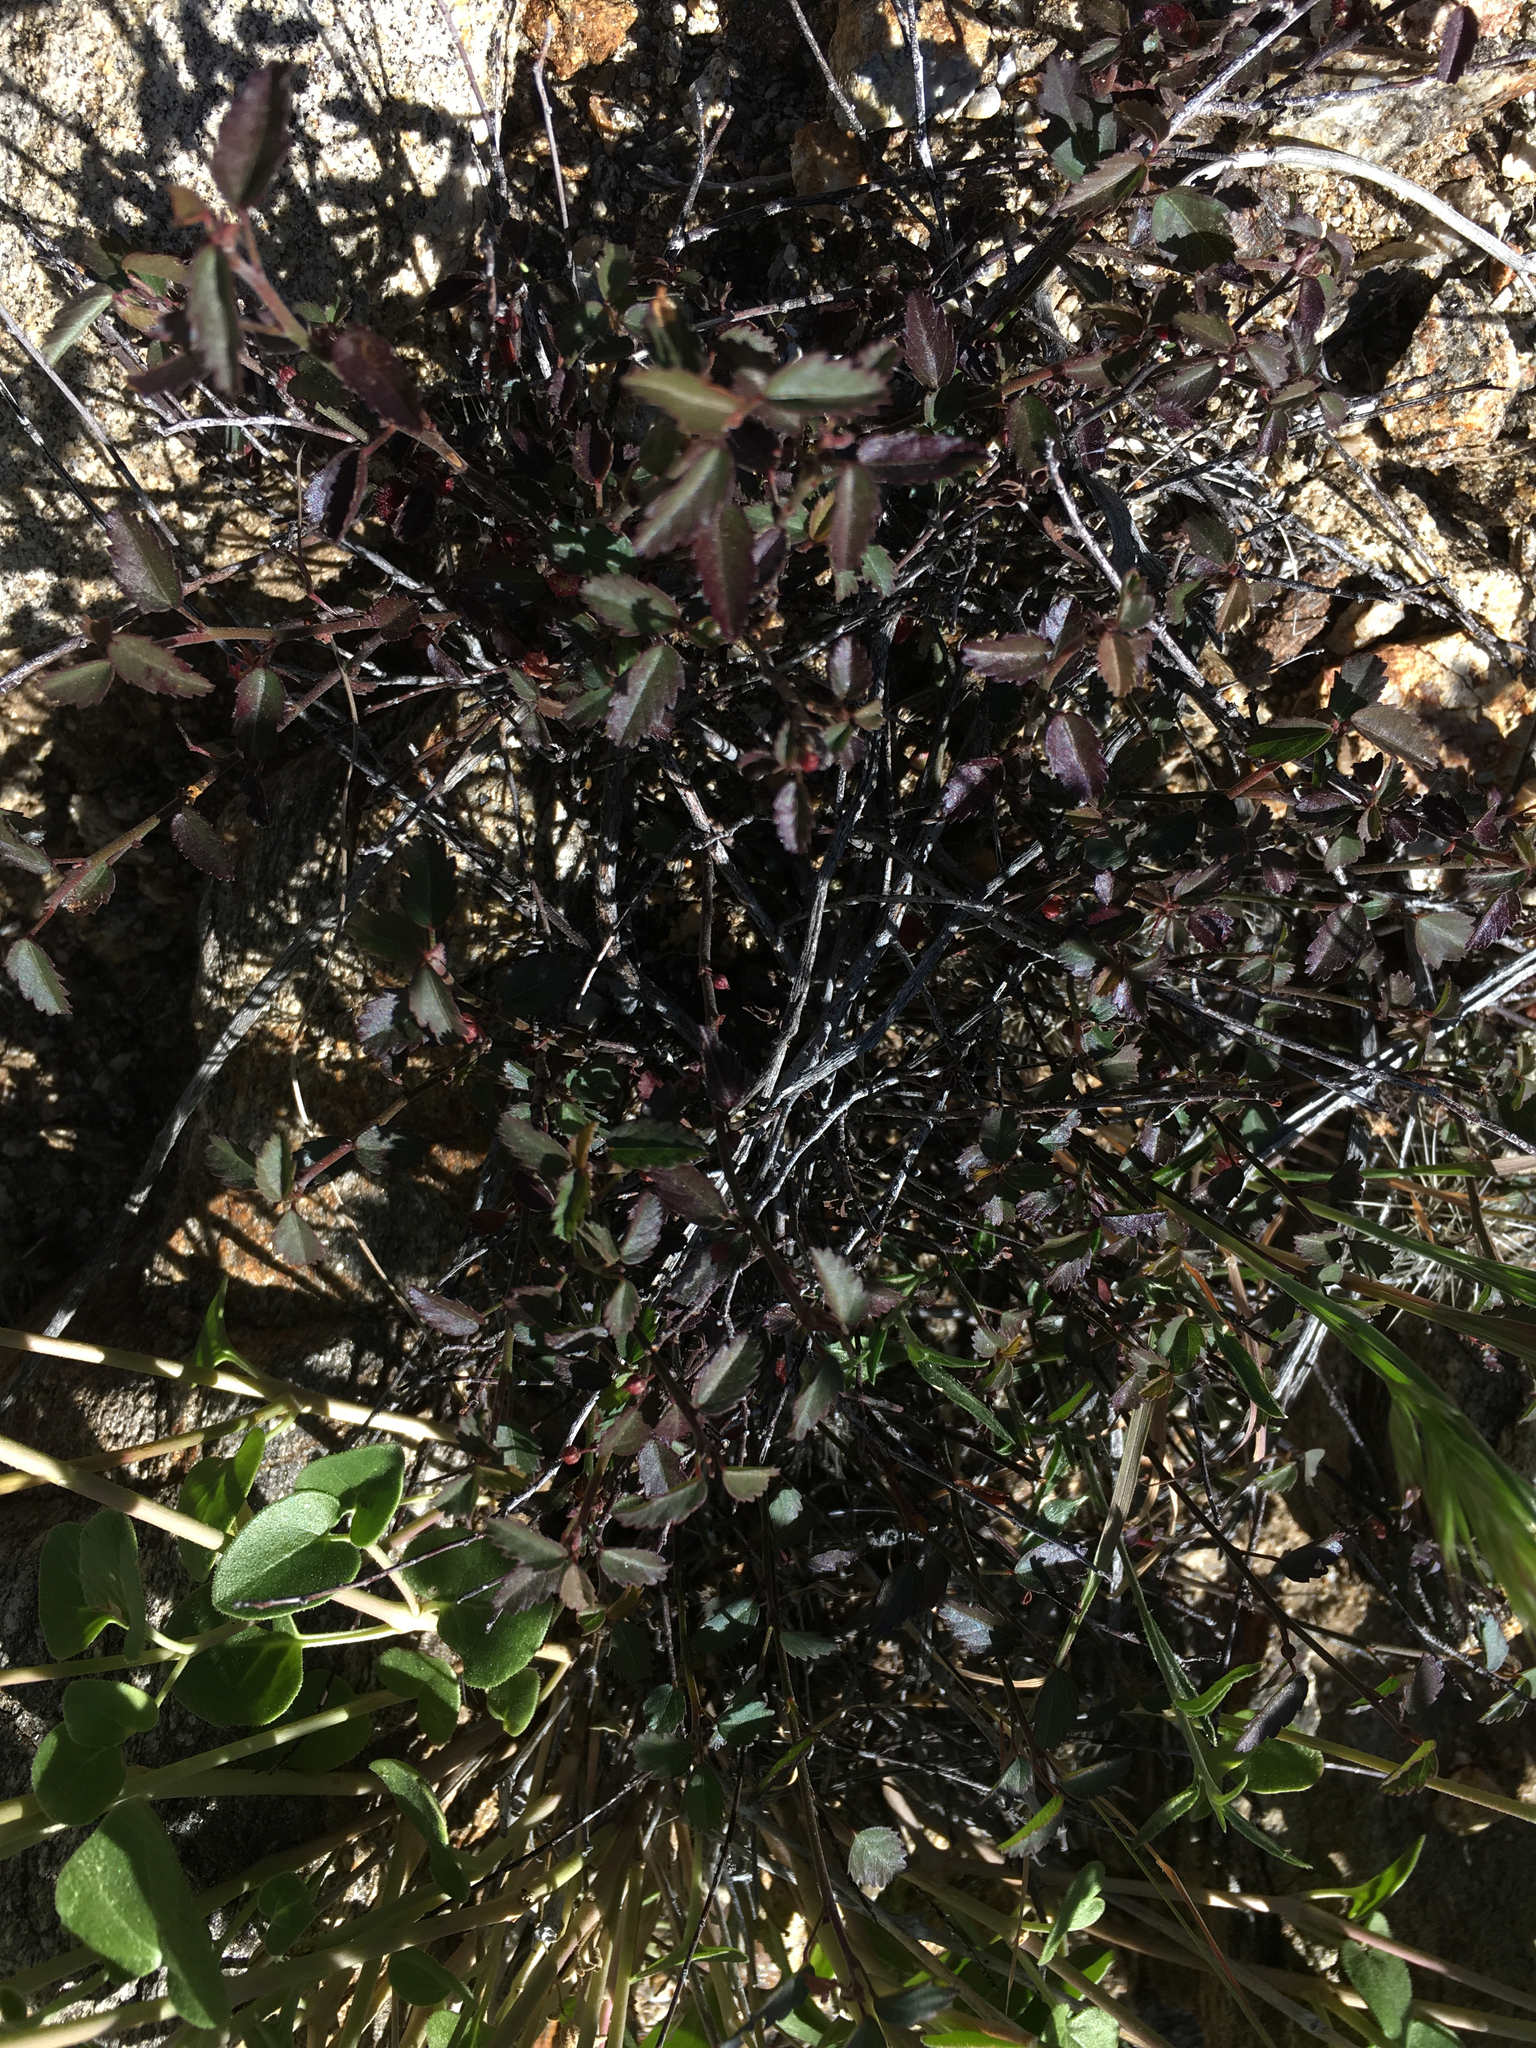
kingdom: Plantae
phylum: Tracheophyta
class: Magnoliopsida
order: Malvales
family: Malvaceae
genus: Ayenia
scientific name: Ayenia compacta
